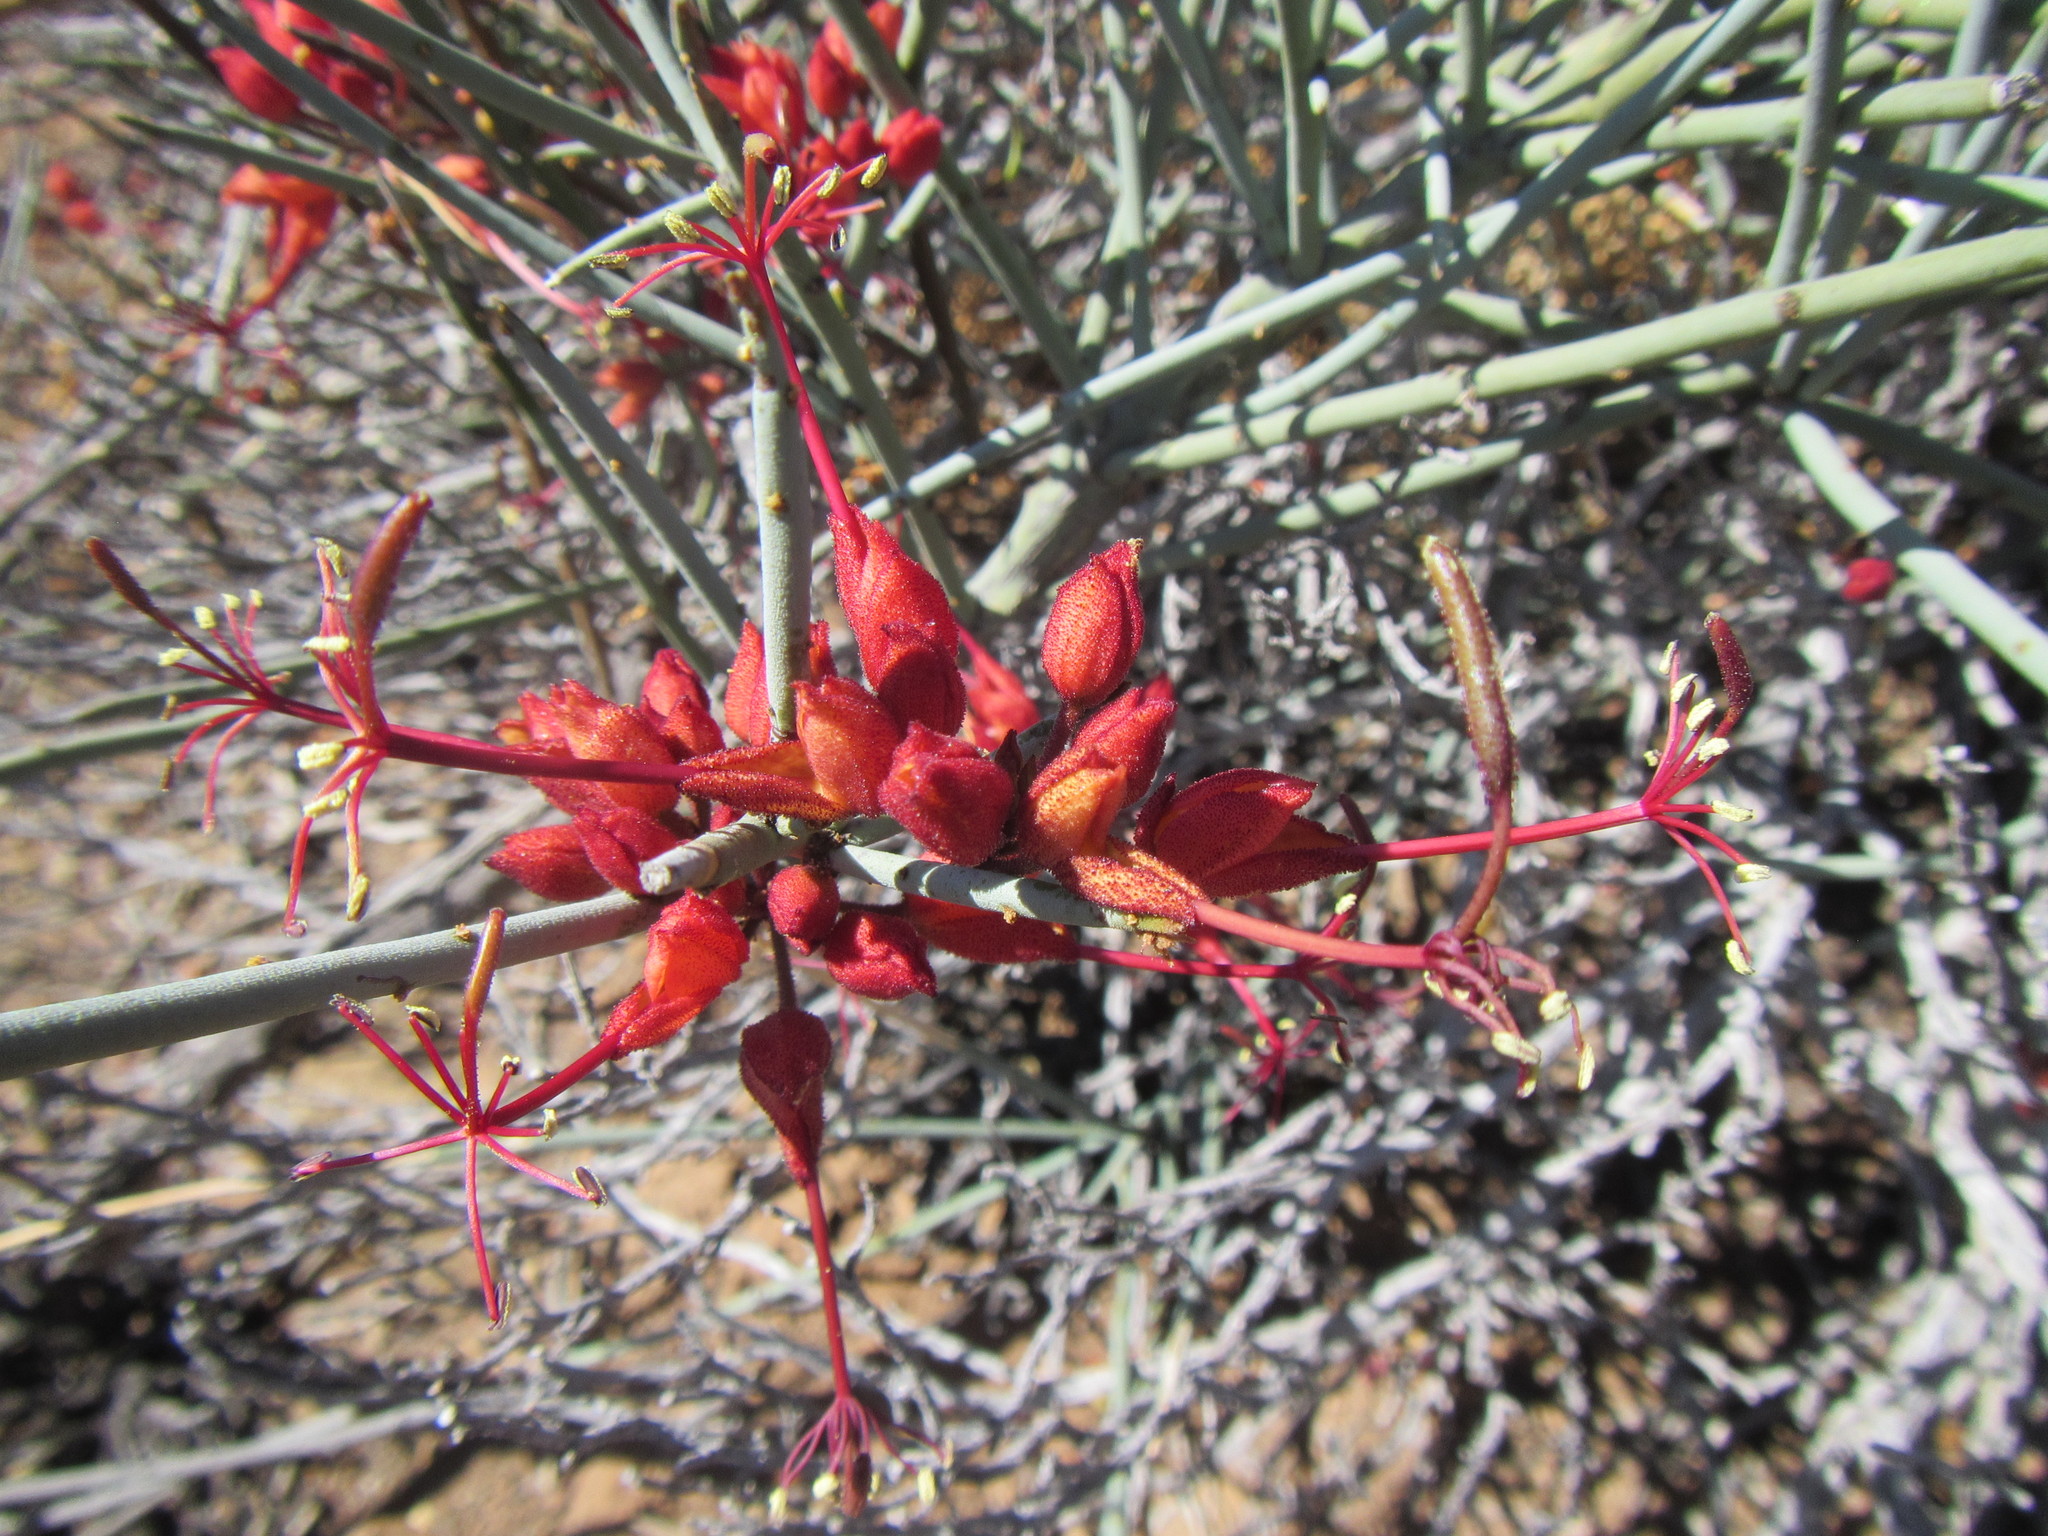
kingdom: Plantae
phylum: Tracheophyta
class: Magnoliopsida
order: Brassicales
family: Capparaceae
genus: Cadaba
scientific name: Cadaba aphylla
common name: Black storm
